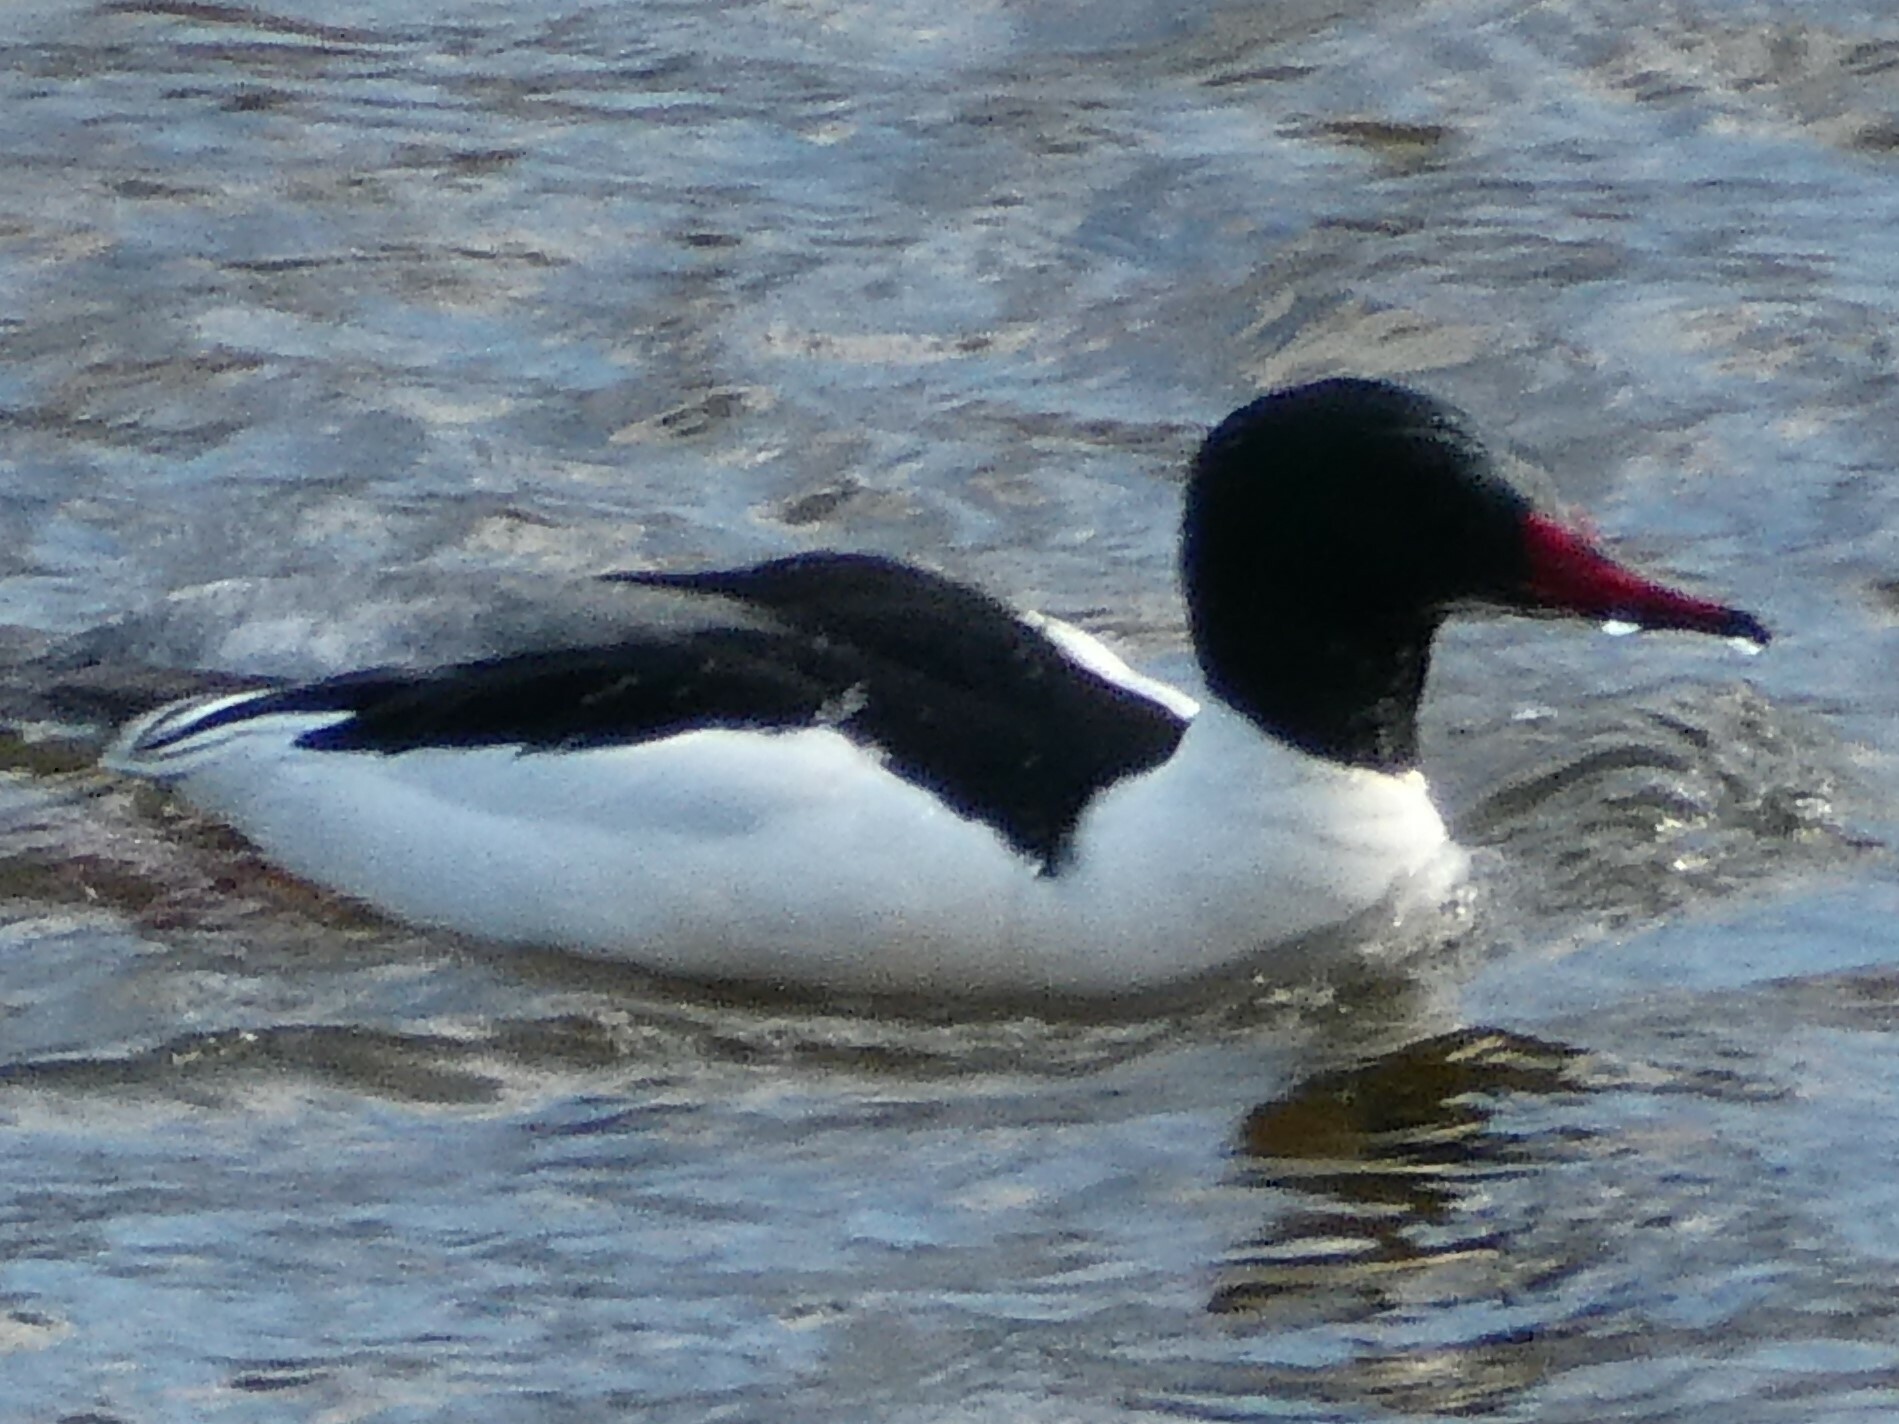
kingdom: Animalia
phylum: Chordata
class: Aves
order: Anseriformes
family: Anatidae
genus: Mergus
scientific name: Mergus merganser
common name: Common merganser
